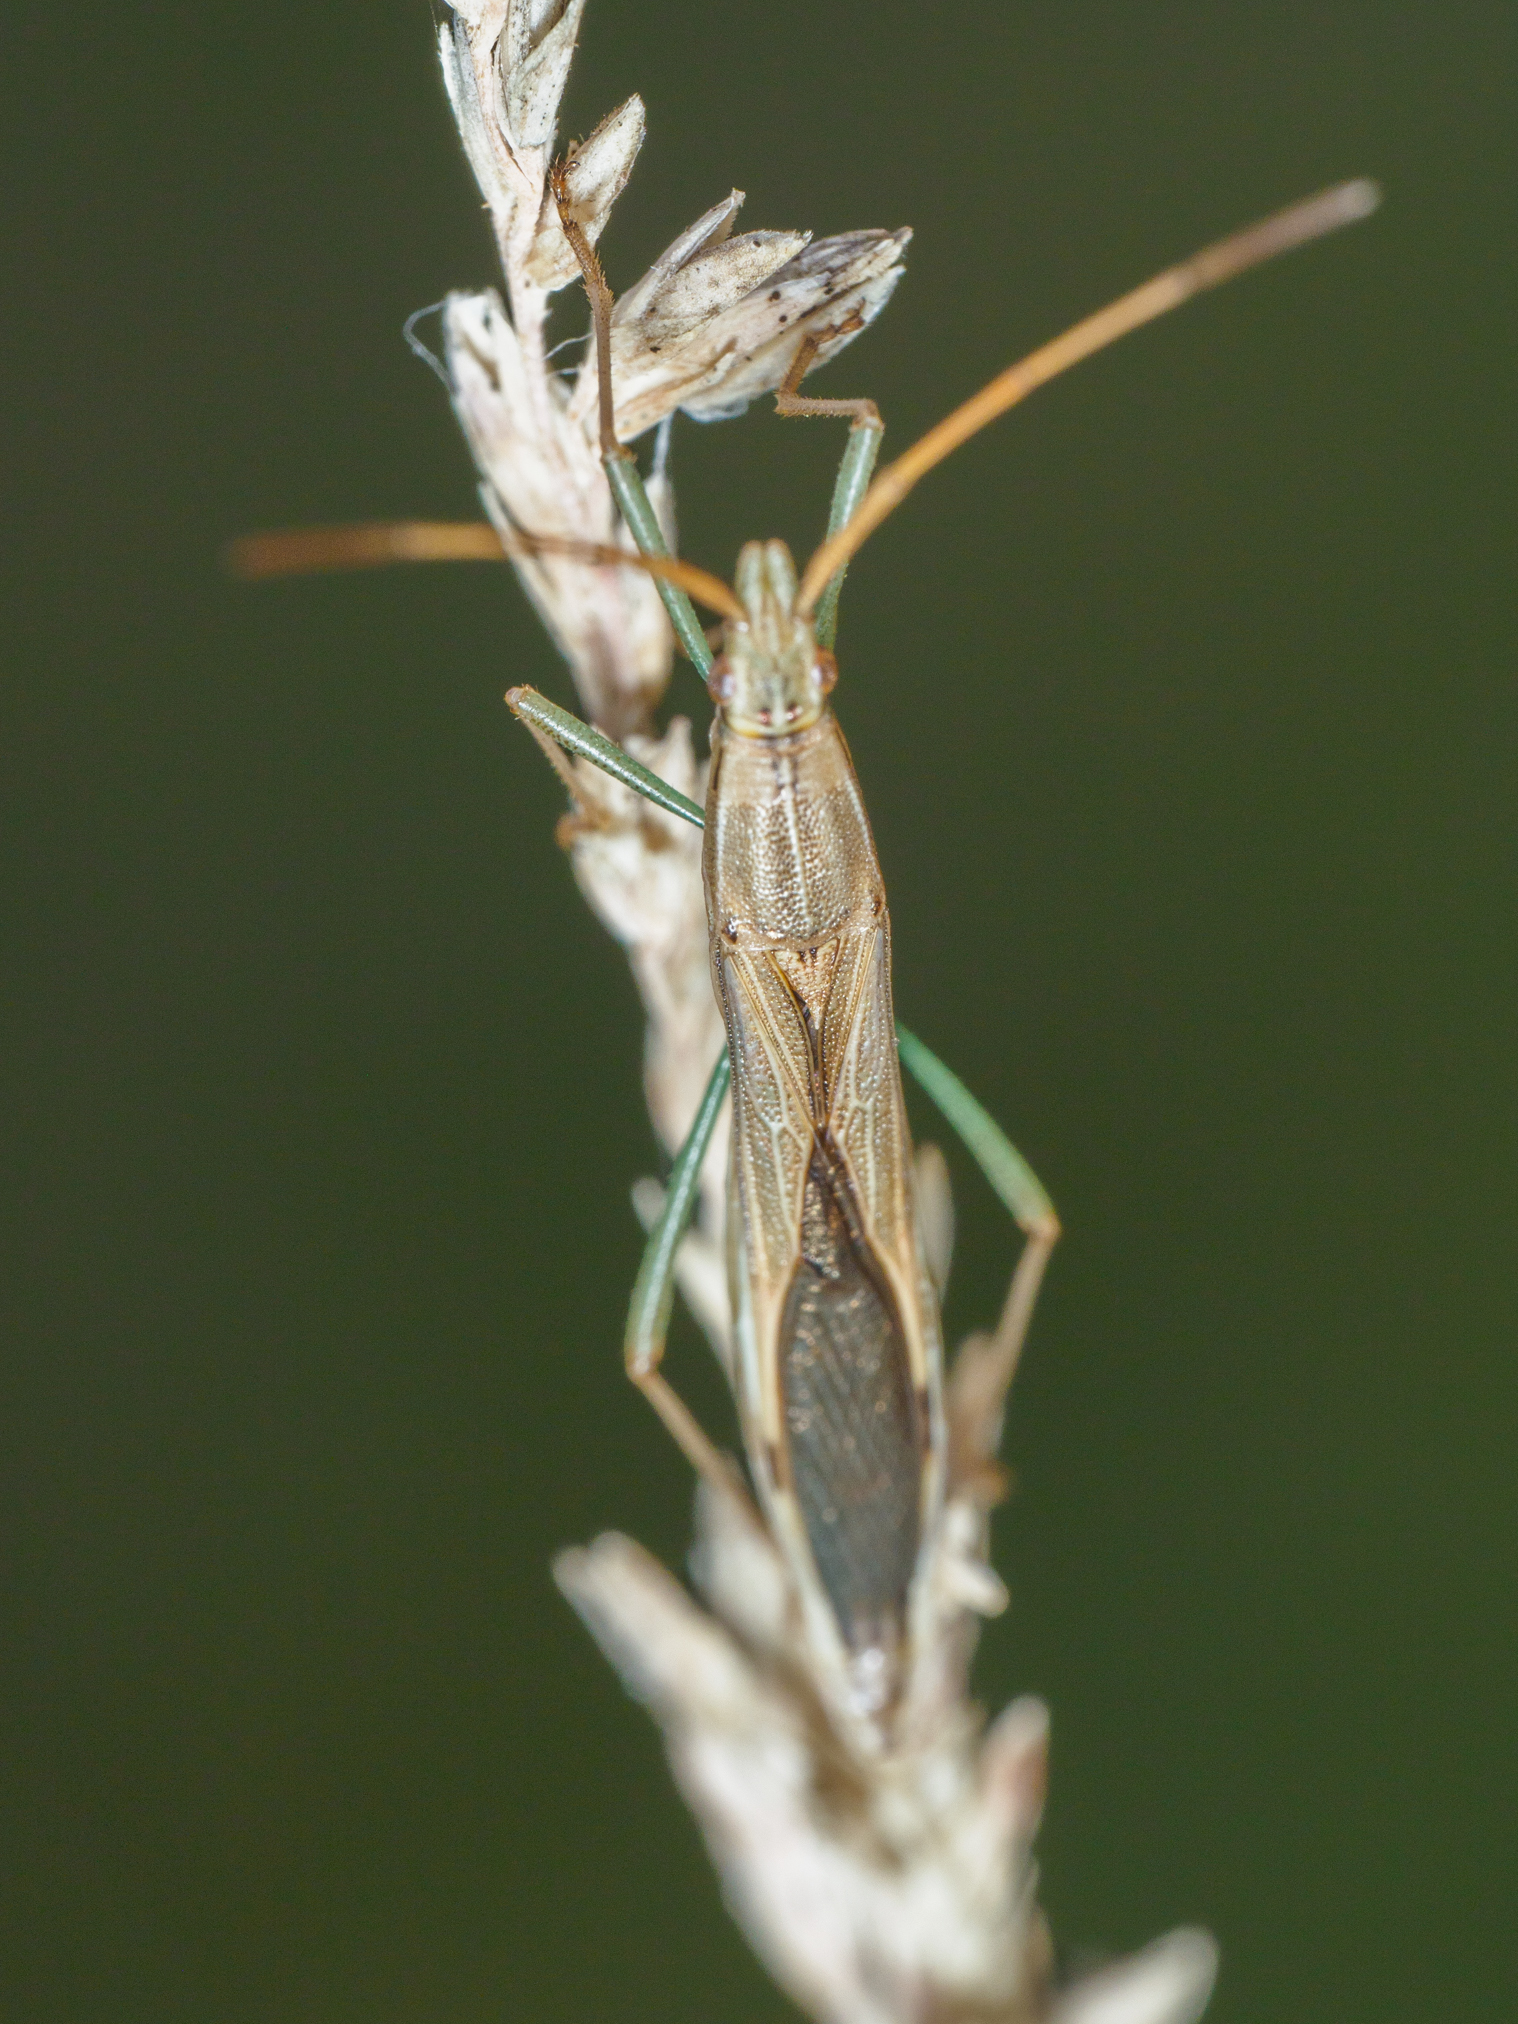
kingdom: Animalia
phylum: Arthropoda
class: Insecta
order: Hemiptera
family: Alydidae
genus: Mutusca
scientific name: Mutusca brevicornis
